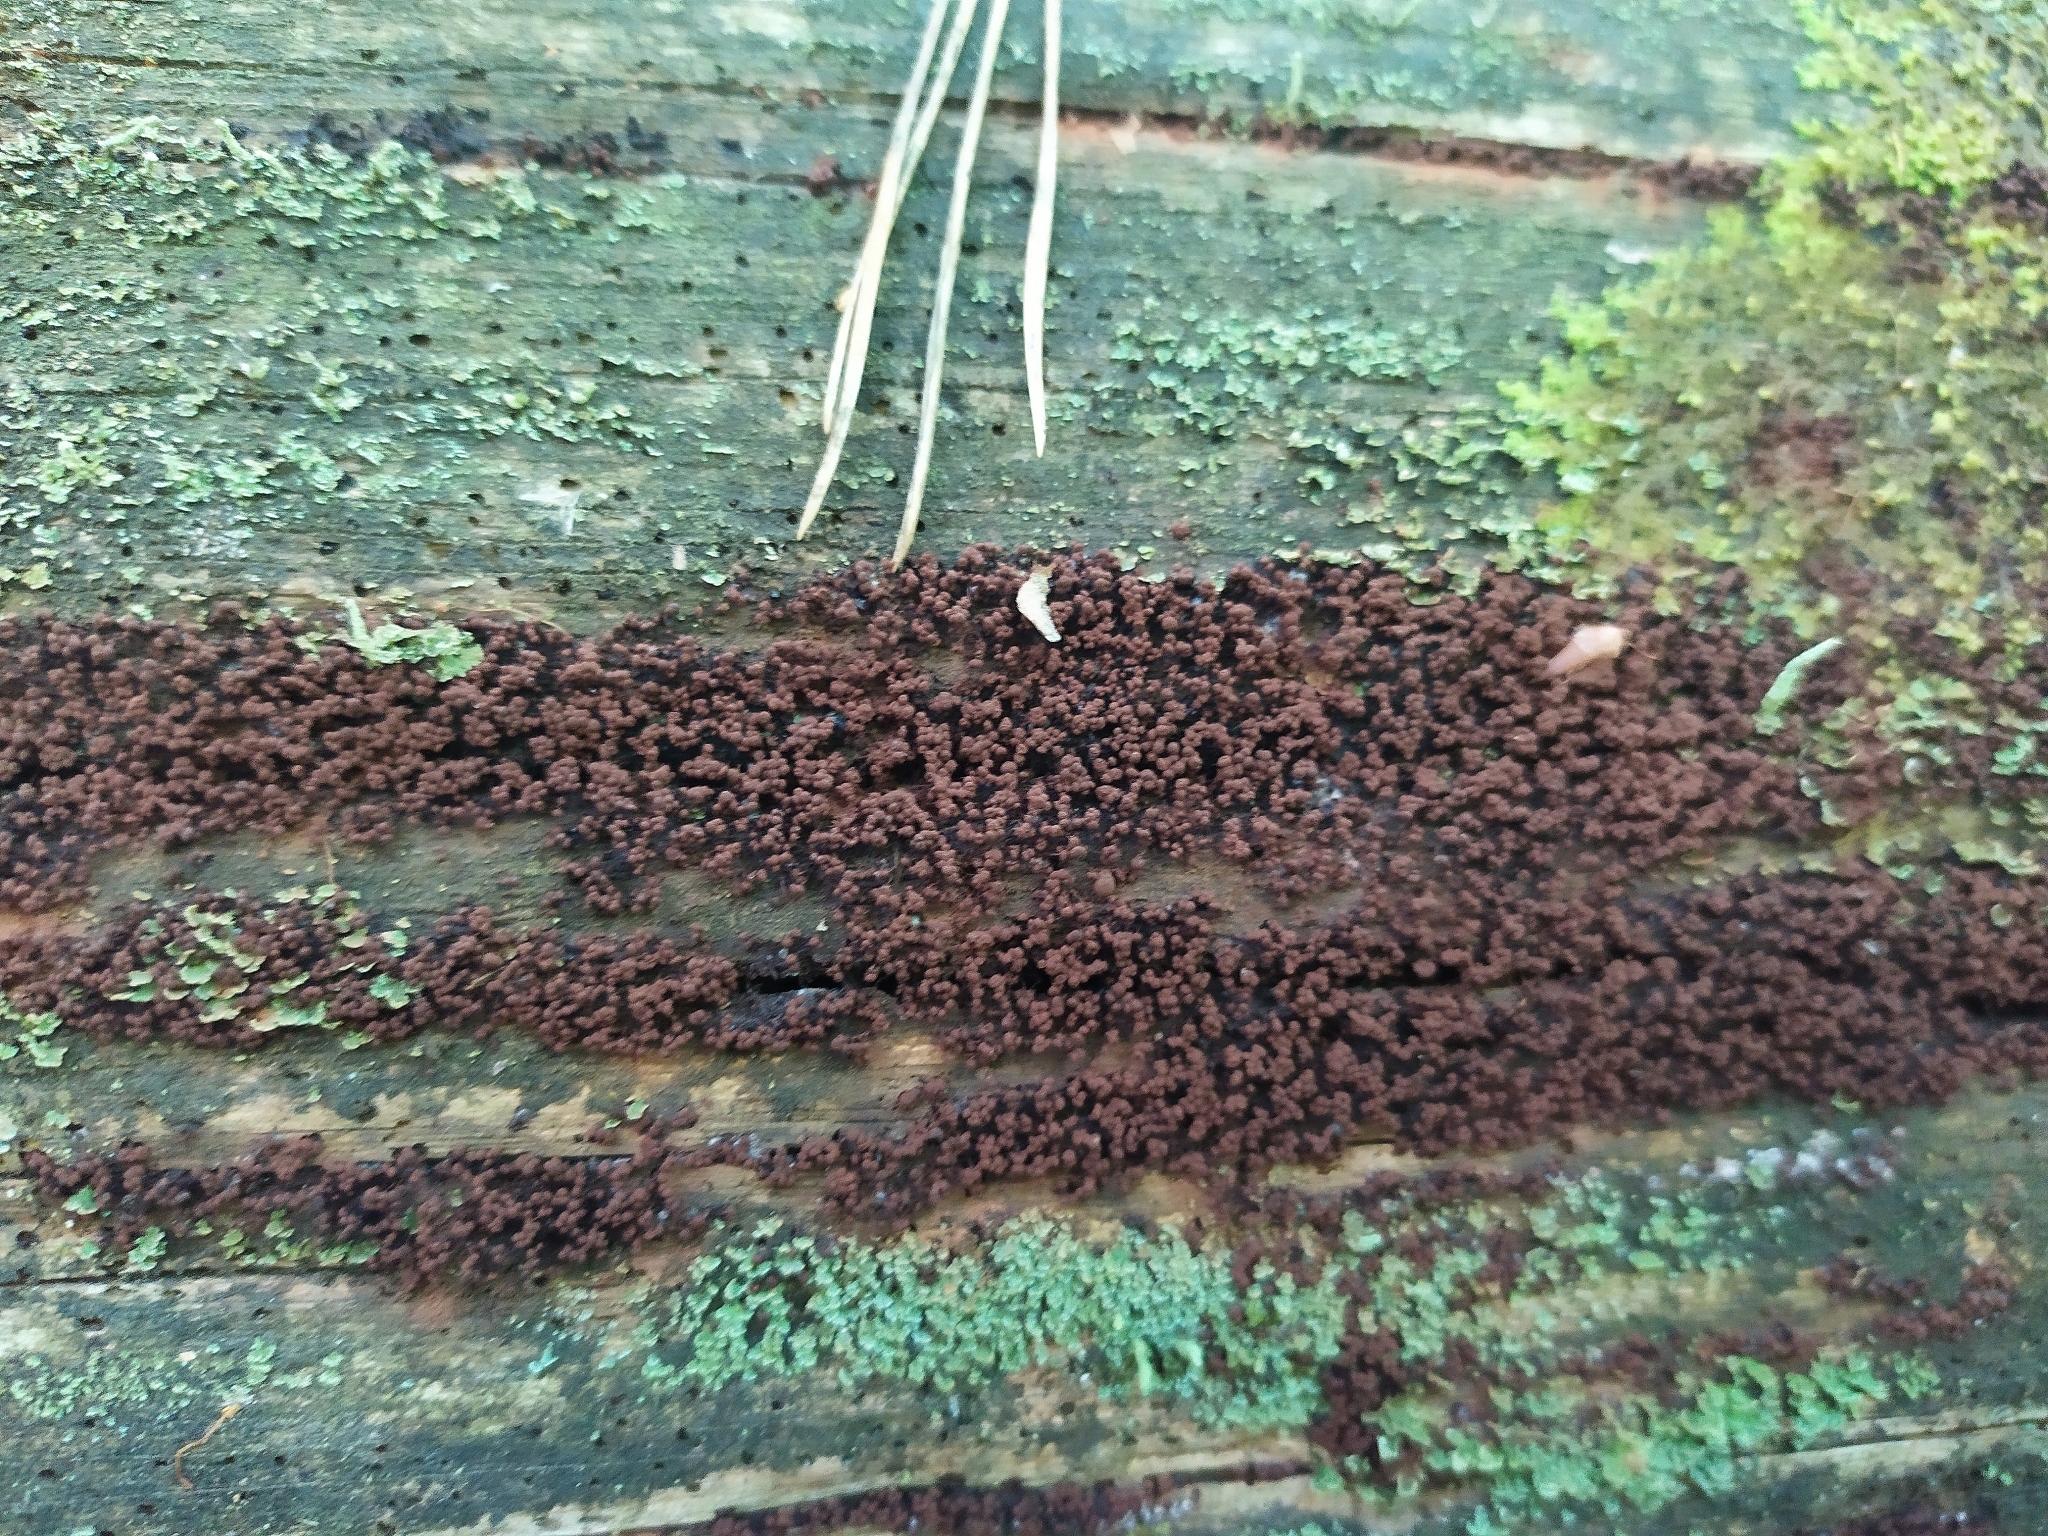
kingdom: Protozoa
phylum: Mycetozoa
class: Myxomycetes
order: Cribrariales
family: Cribrariaceae
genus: Cribraria
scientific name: Cribraria cancellata
